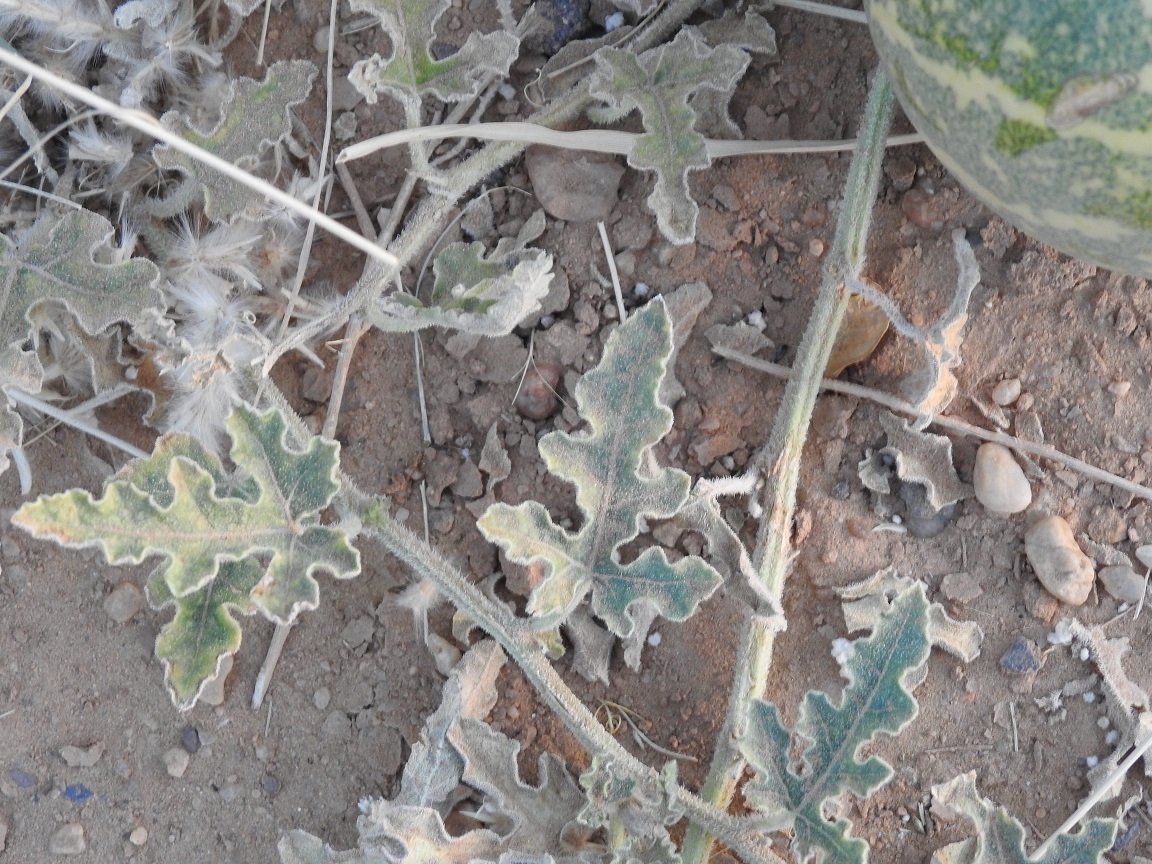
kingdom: Plantae
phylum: Tracheophyta
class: Magnoliopsida
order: Cucurbitales
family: Cucurbitaceae
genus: Citrullus
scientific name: Citrullus colocynthis
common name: Colocynth
